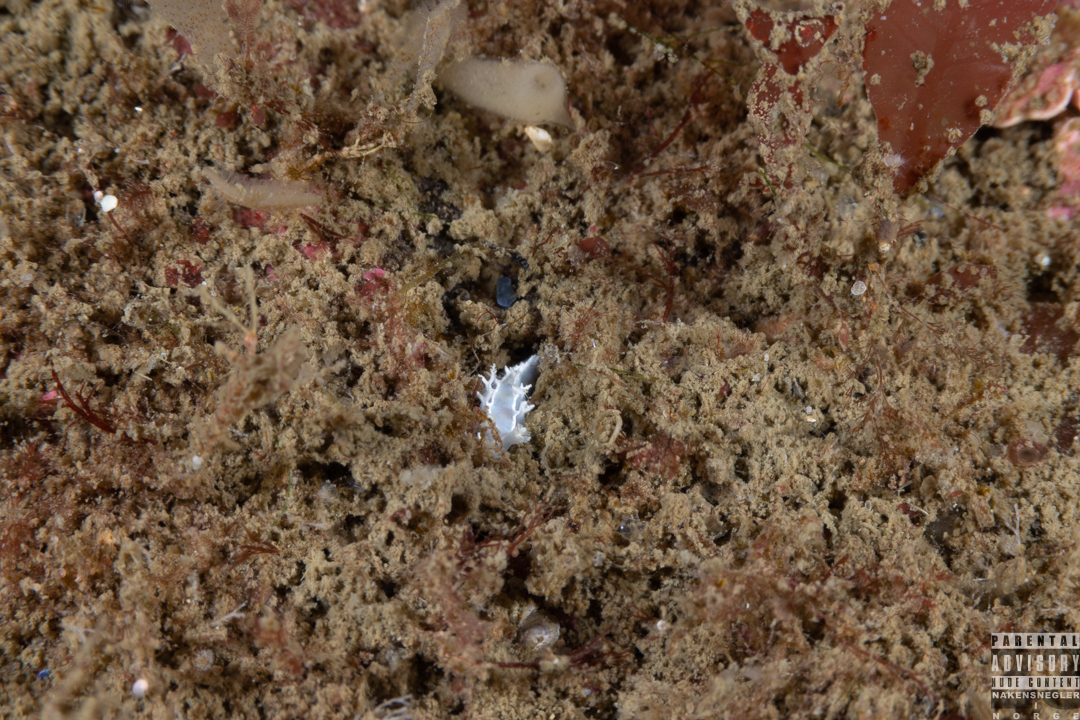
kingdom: Animalia
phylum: Mollusca
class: Gastropoda
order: Nudibranchia
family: Tritoniidae
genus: Duvaucelia
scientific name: Duvaucelia lineata
